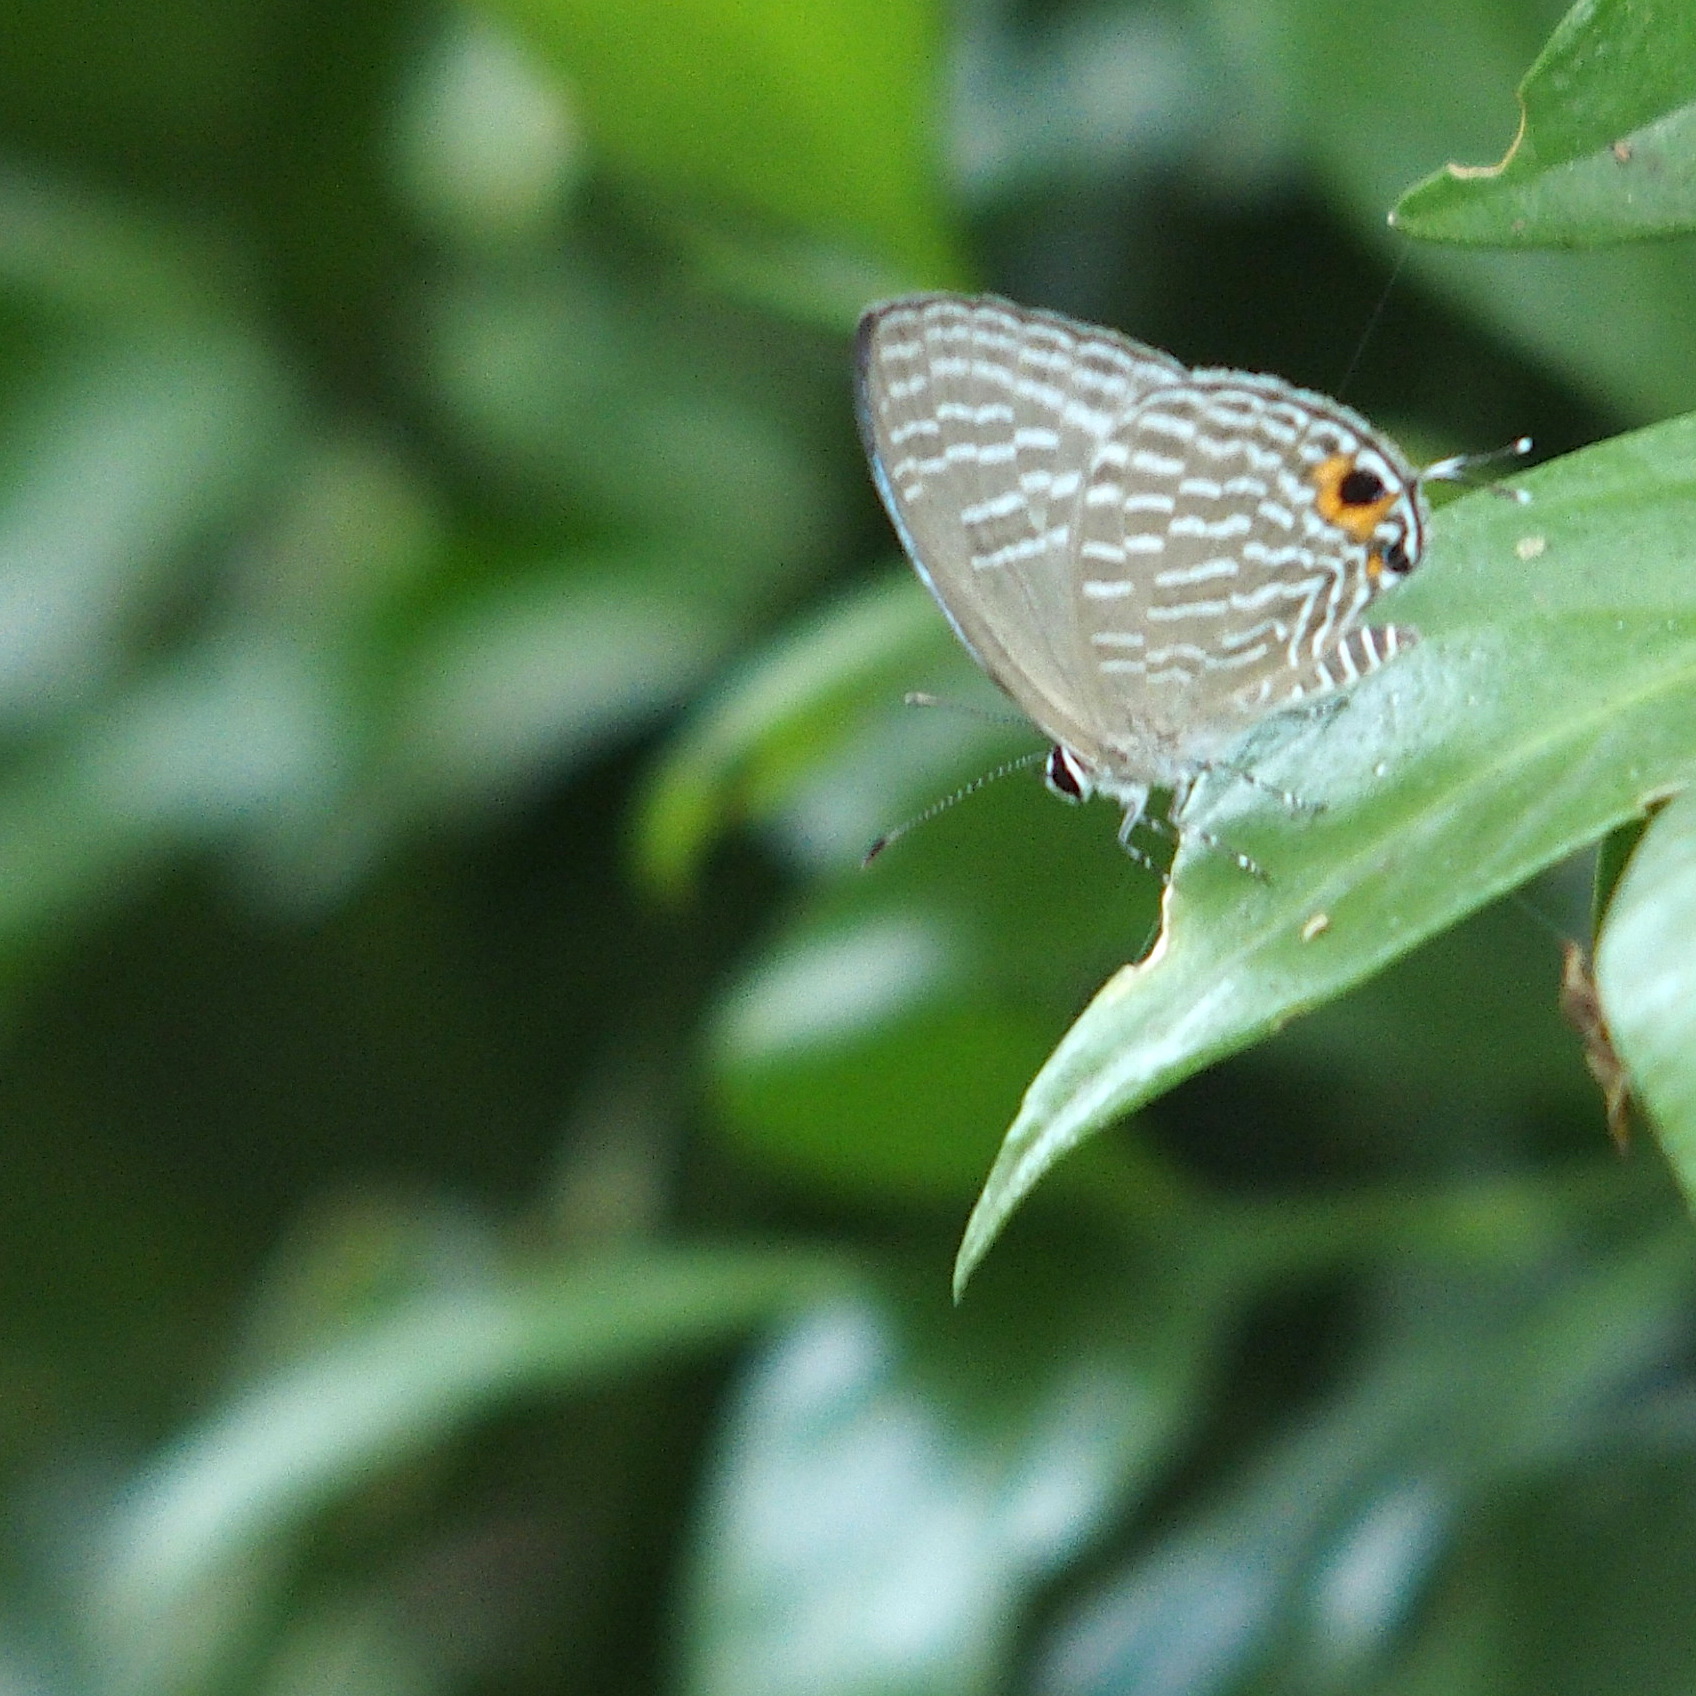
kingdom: Animalia
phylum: Arthropoda
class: Insecta
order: Lepidoptera
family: Lycaenidae
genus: Jamides
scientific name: Jamides alecto
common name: Metallic cerulean
